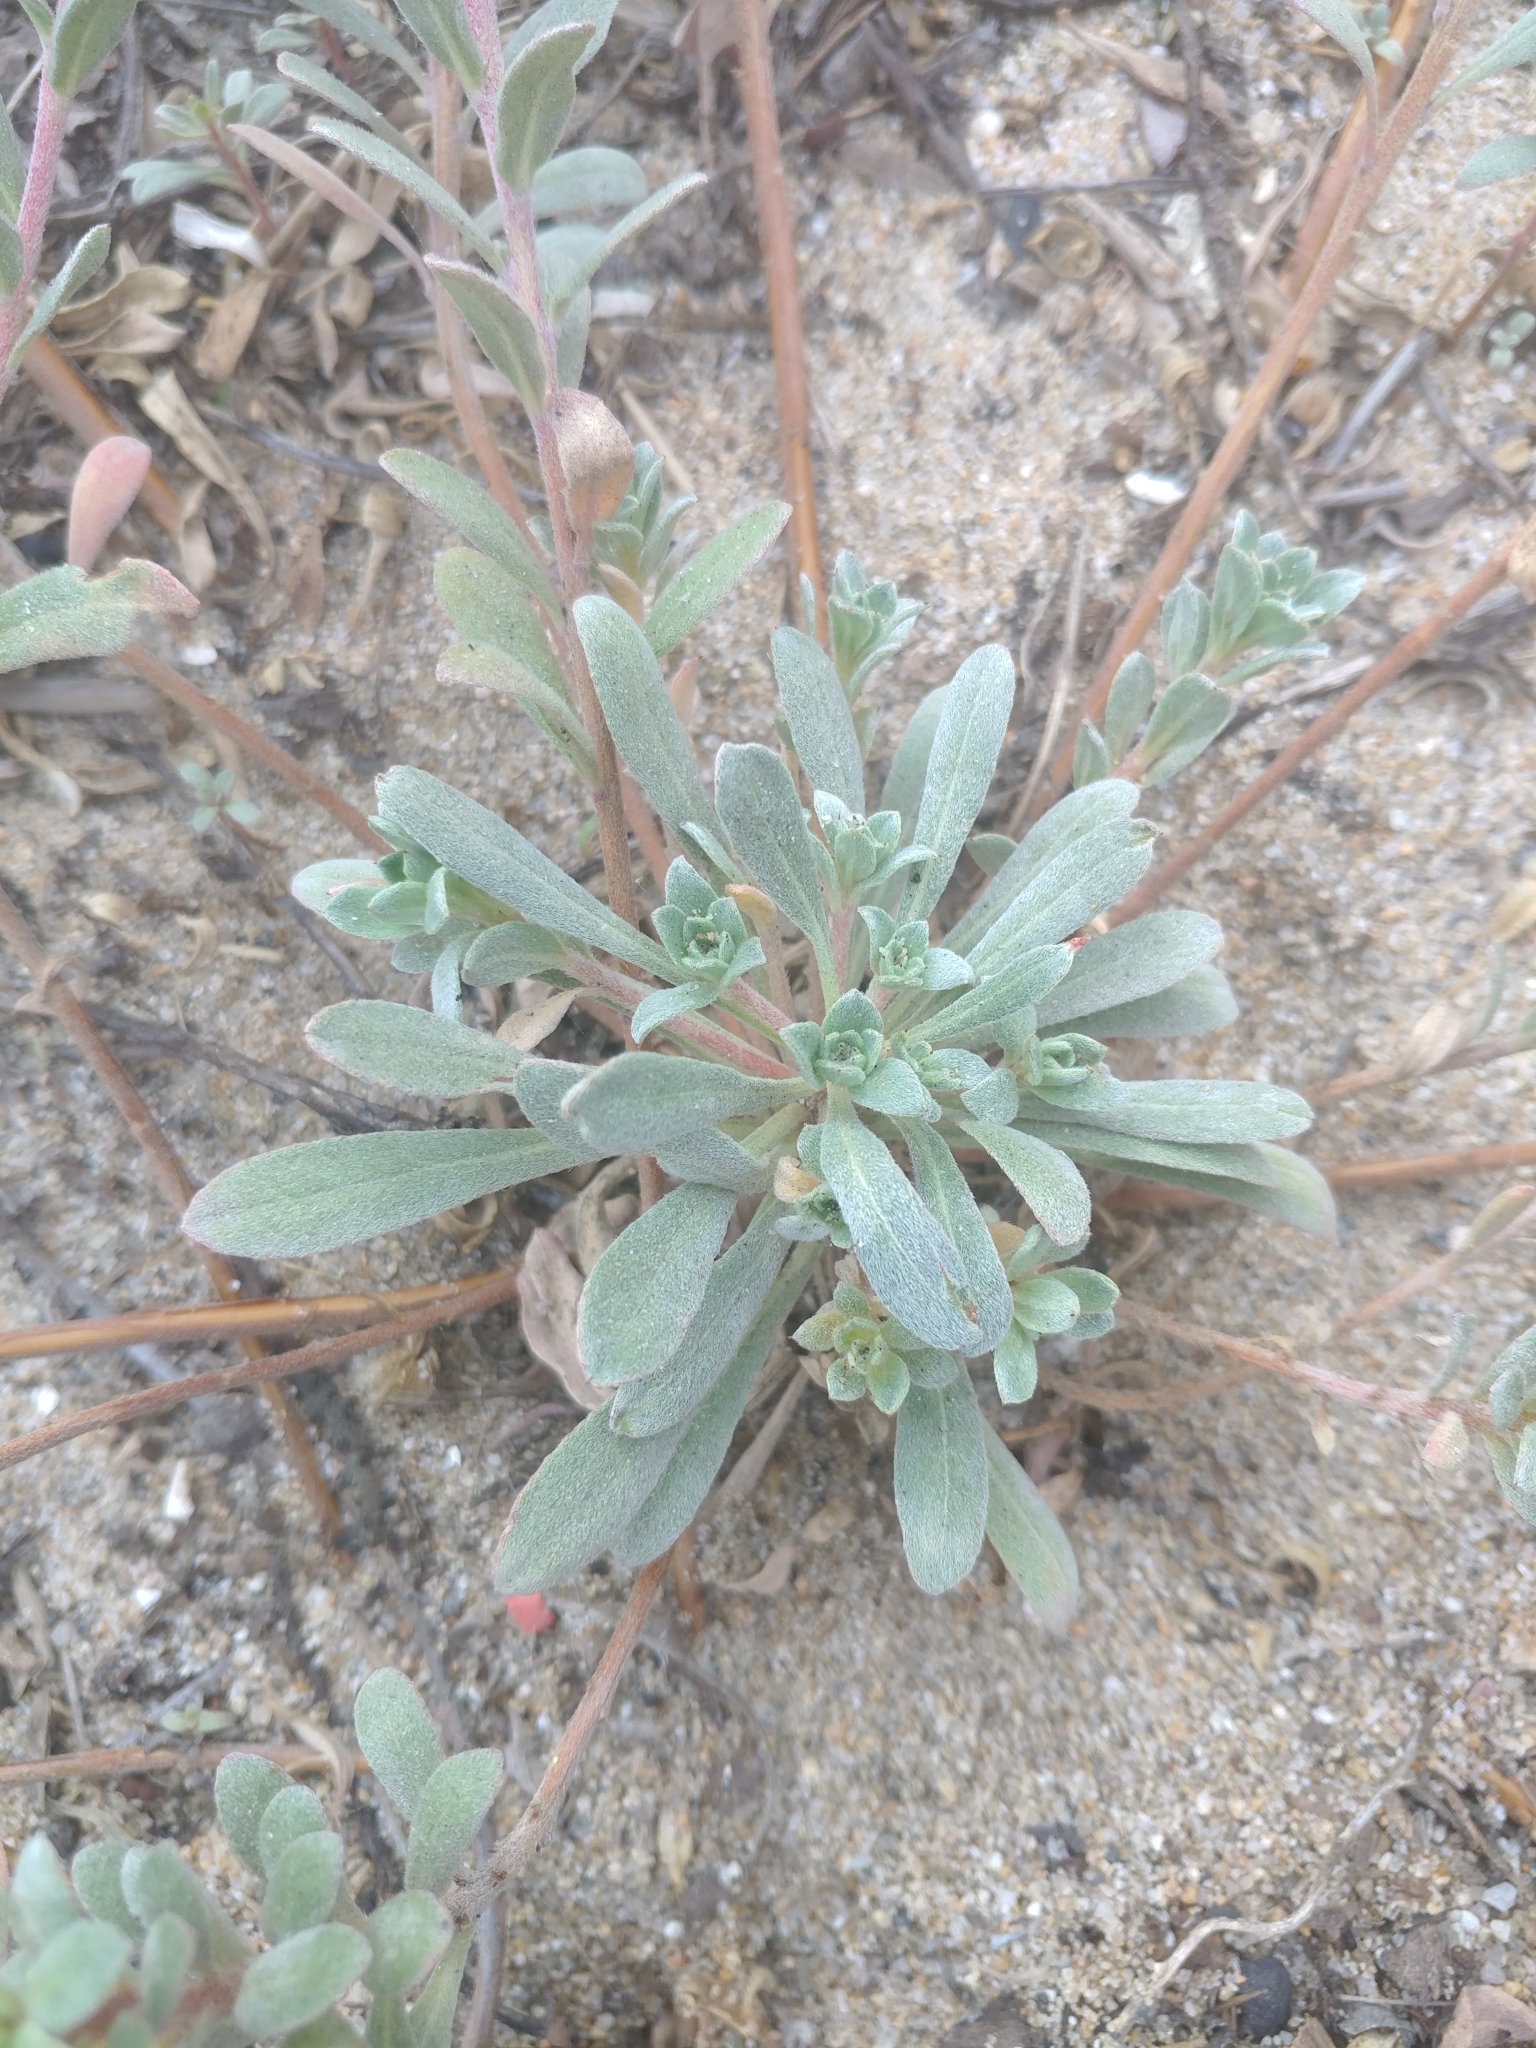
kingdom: Plantae
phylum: Tracheophyta
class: Magnoliopsida
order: Myrtales
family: Onagraceae
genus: Camissoniopsis
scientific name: Camissoniopsis cheiranthifolia
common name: Beach suncup
